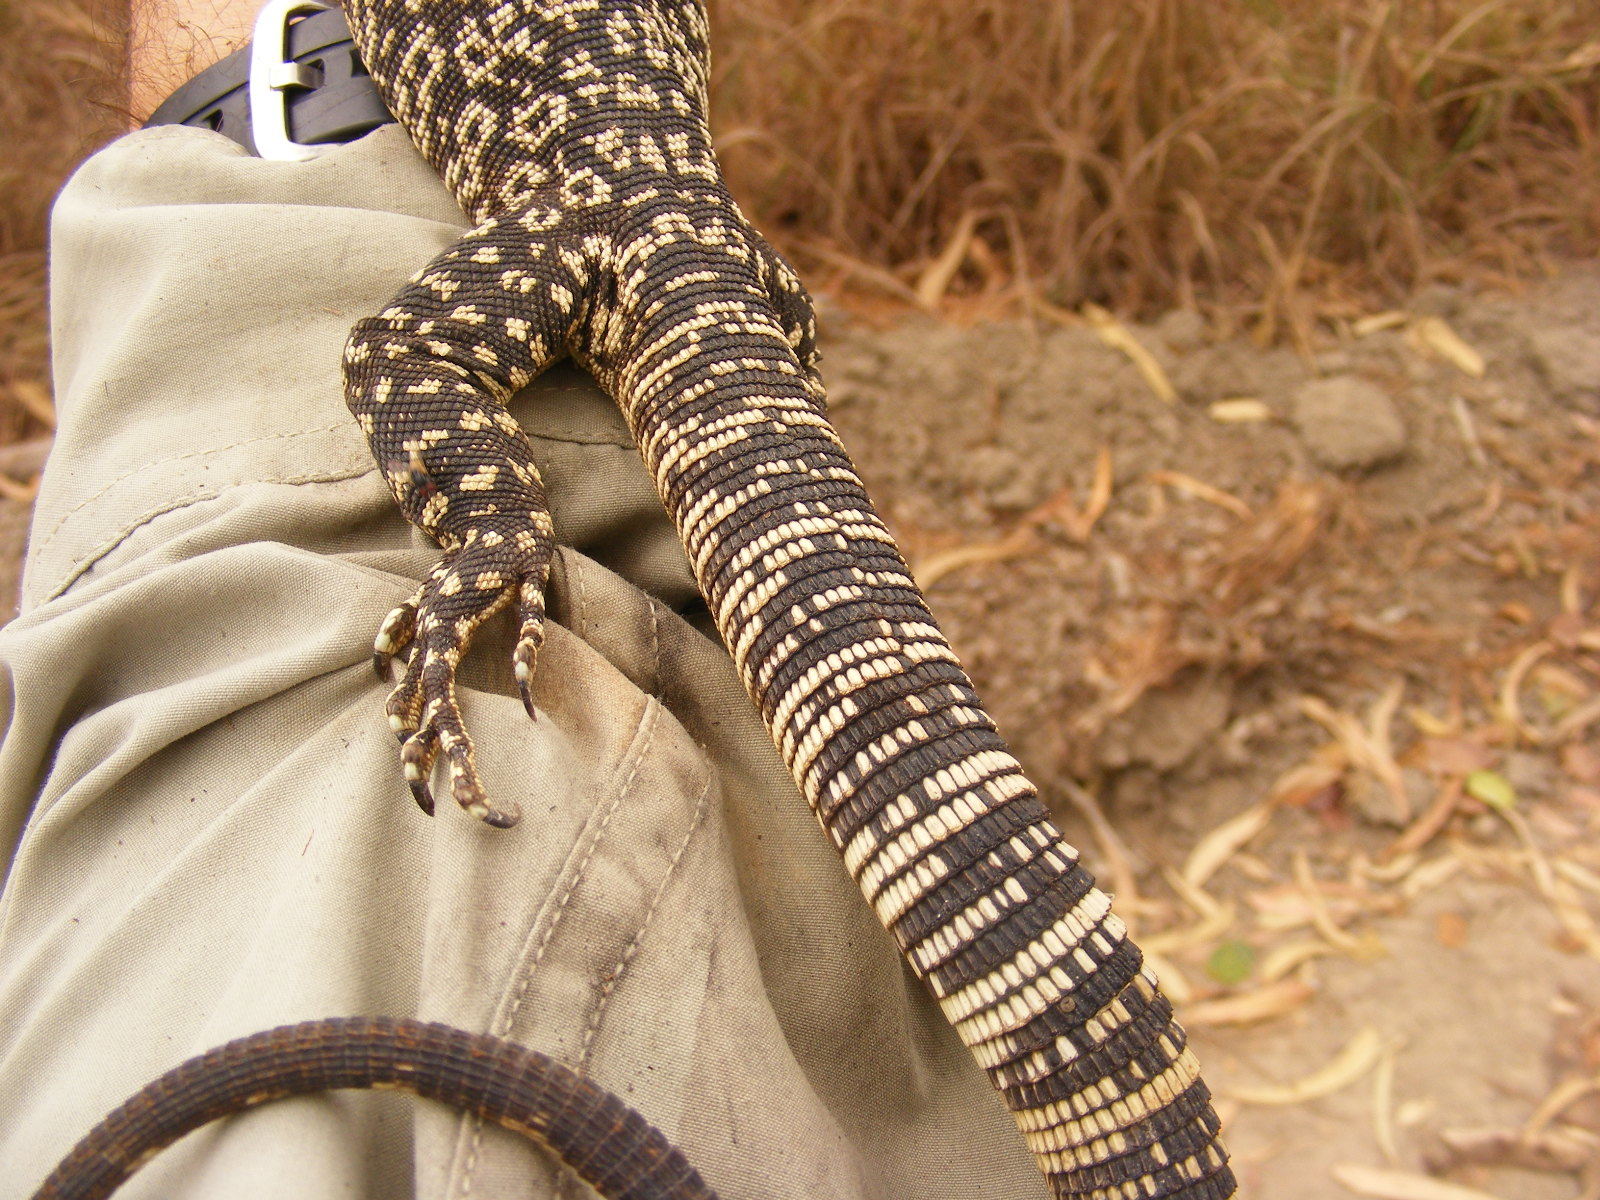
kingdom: Animalia
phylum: Chordata
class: Squamata
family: Varanidae
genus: Varanus
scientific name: Varanus scalaris
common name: Banded tree monitor
